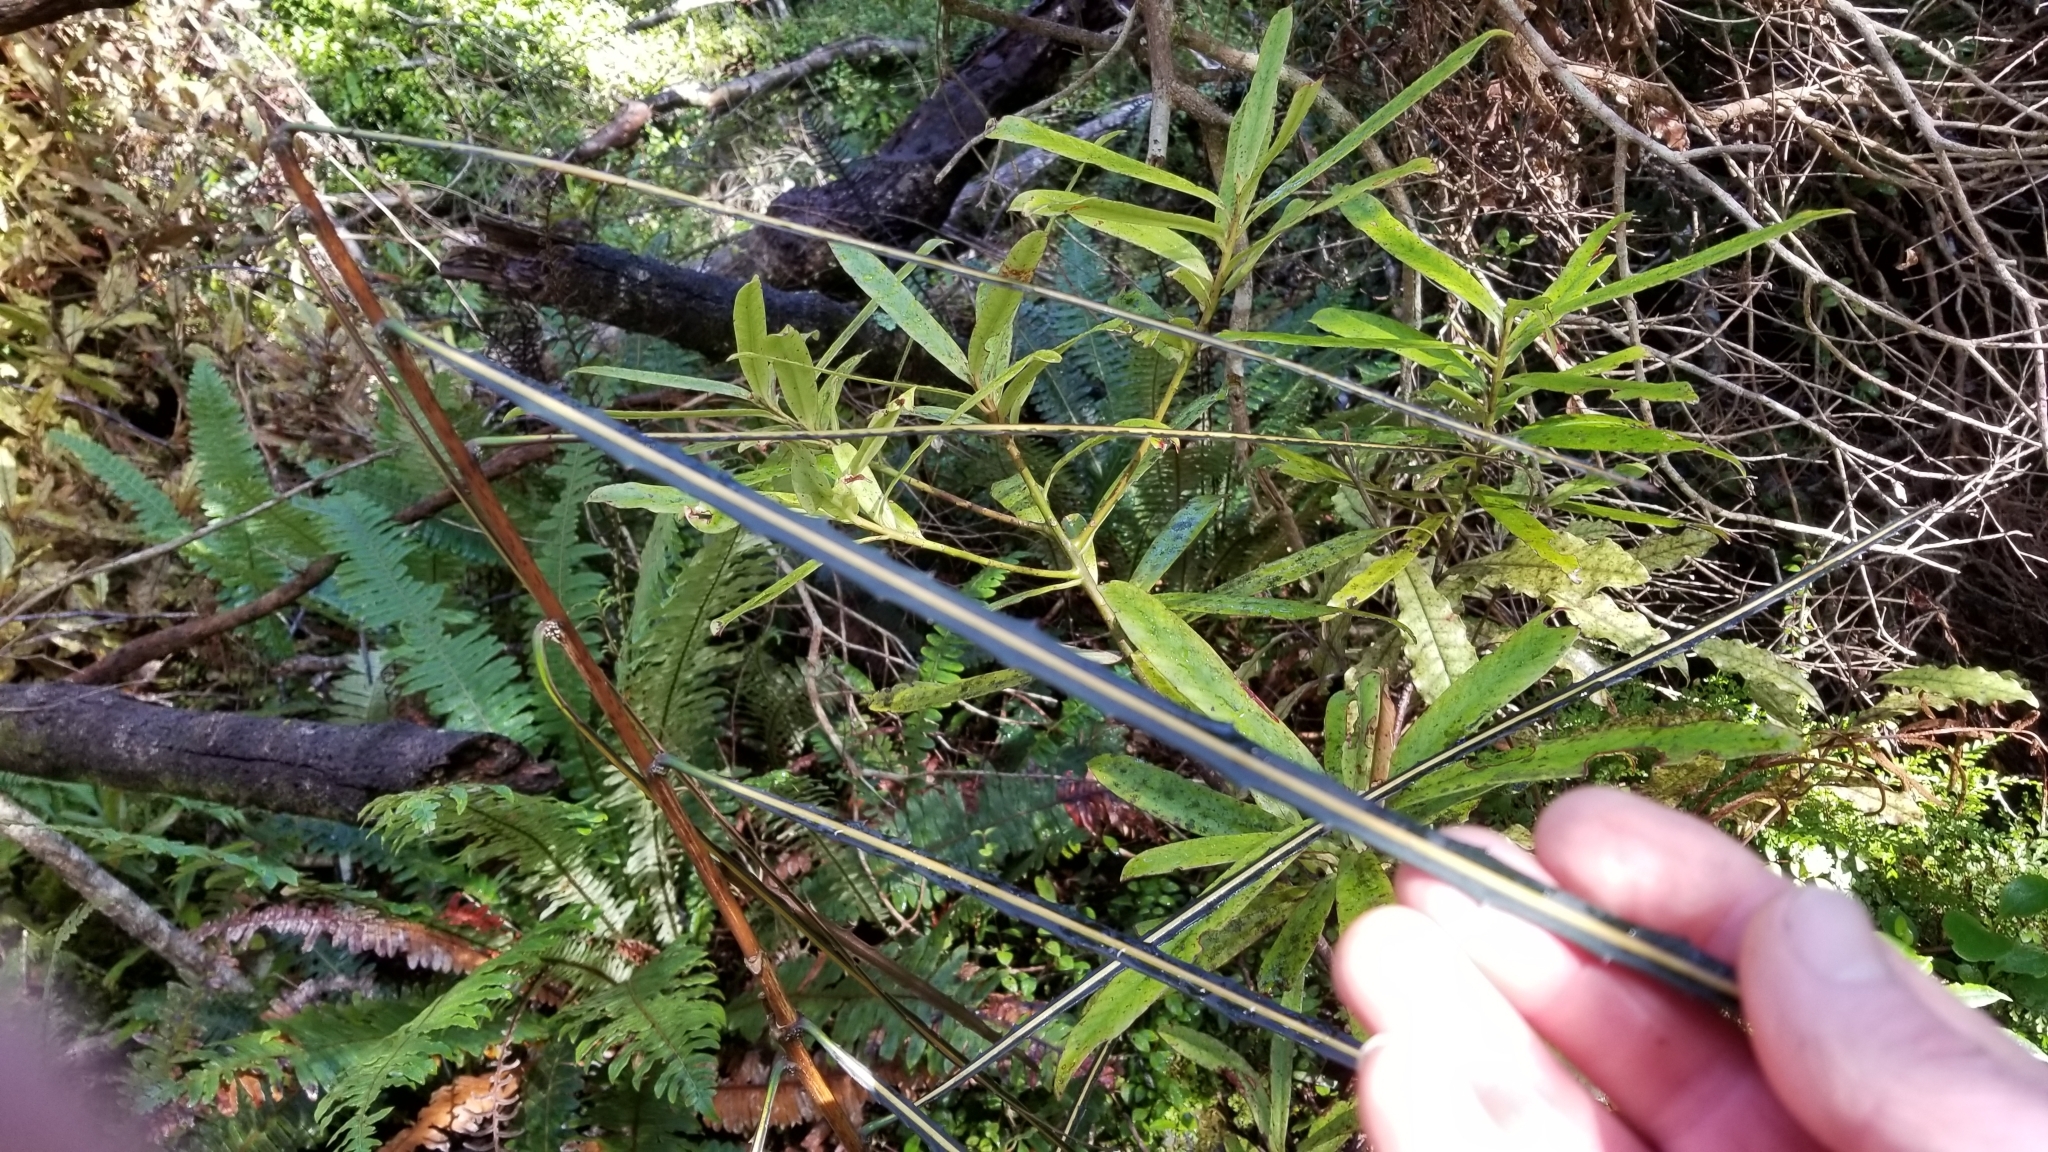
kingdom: Plantae
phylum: Tracheophyta
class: Magnoliopsida
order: Apiales
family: Araliaceae
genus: Pseudopanax
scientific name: Pseudopanax crassifolius
